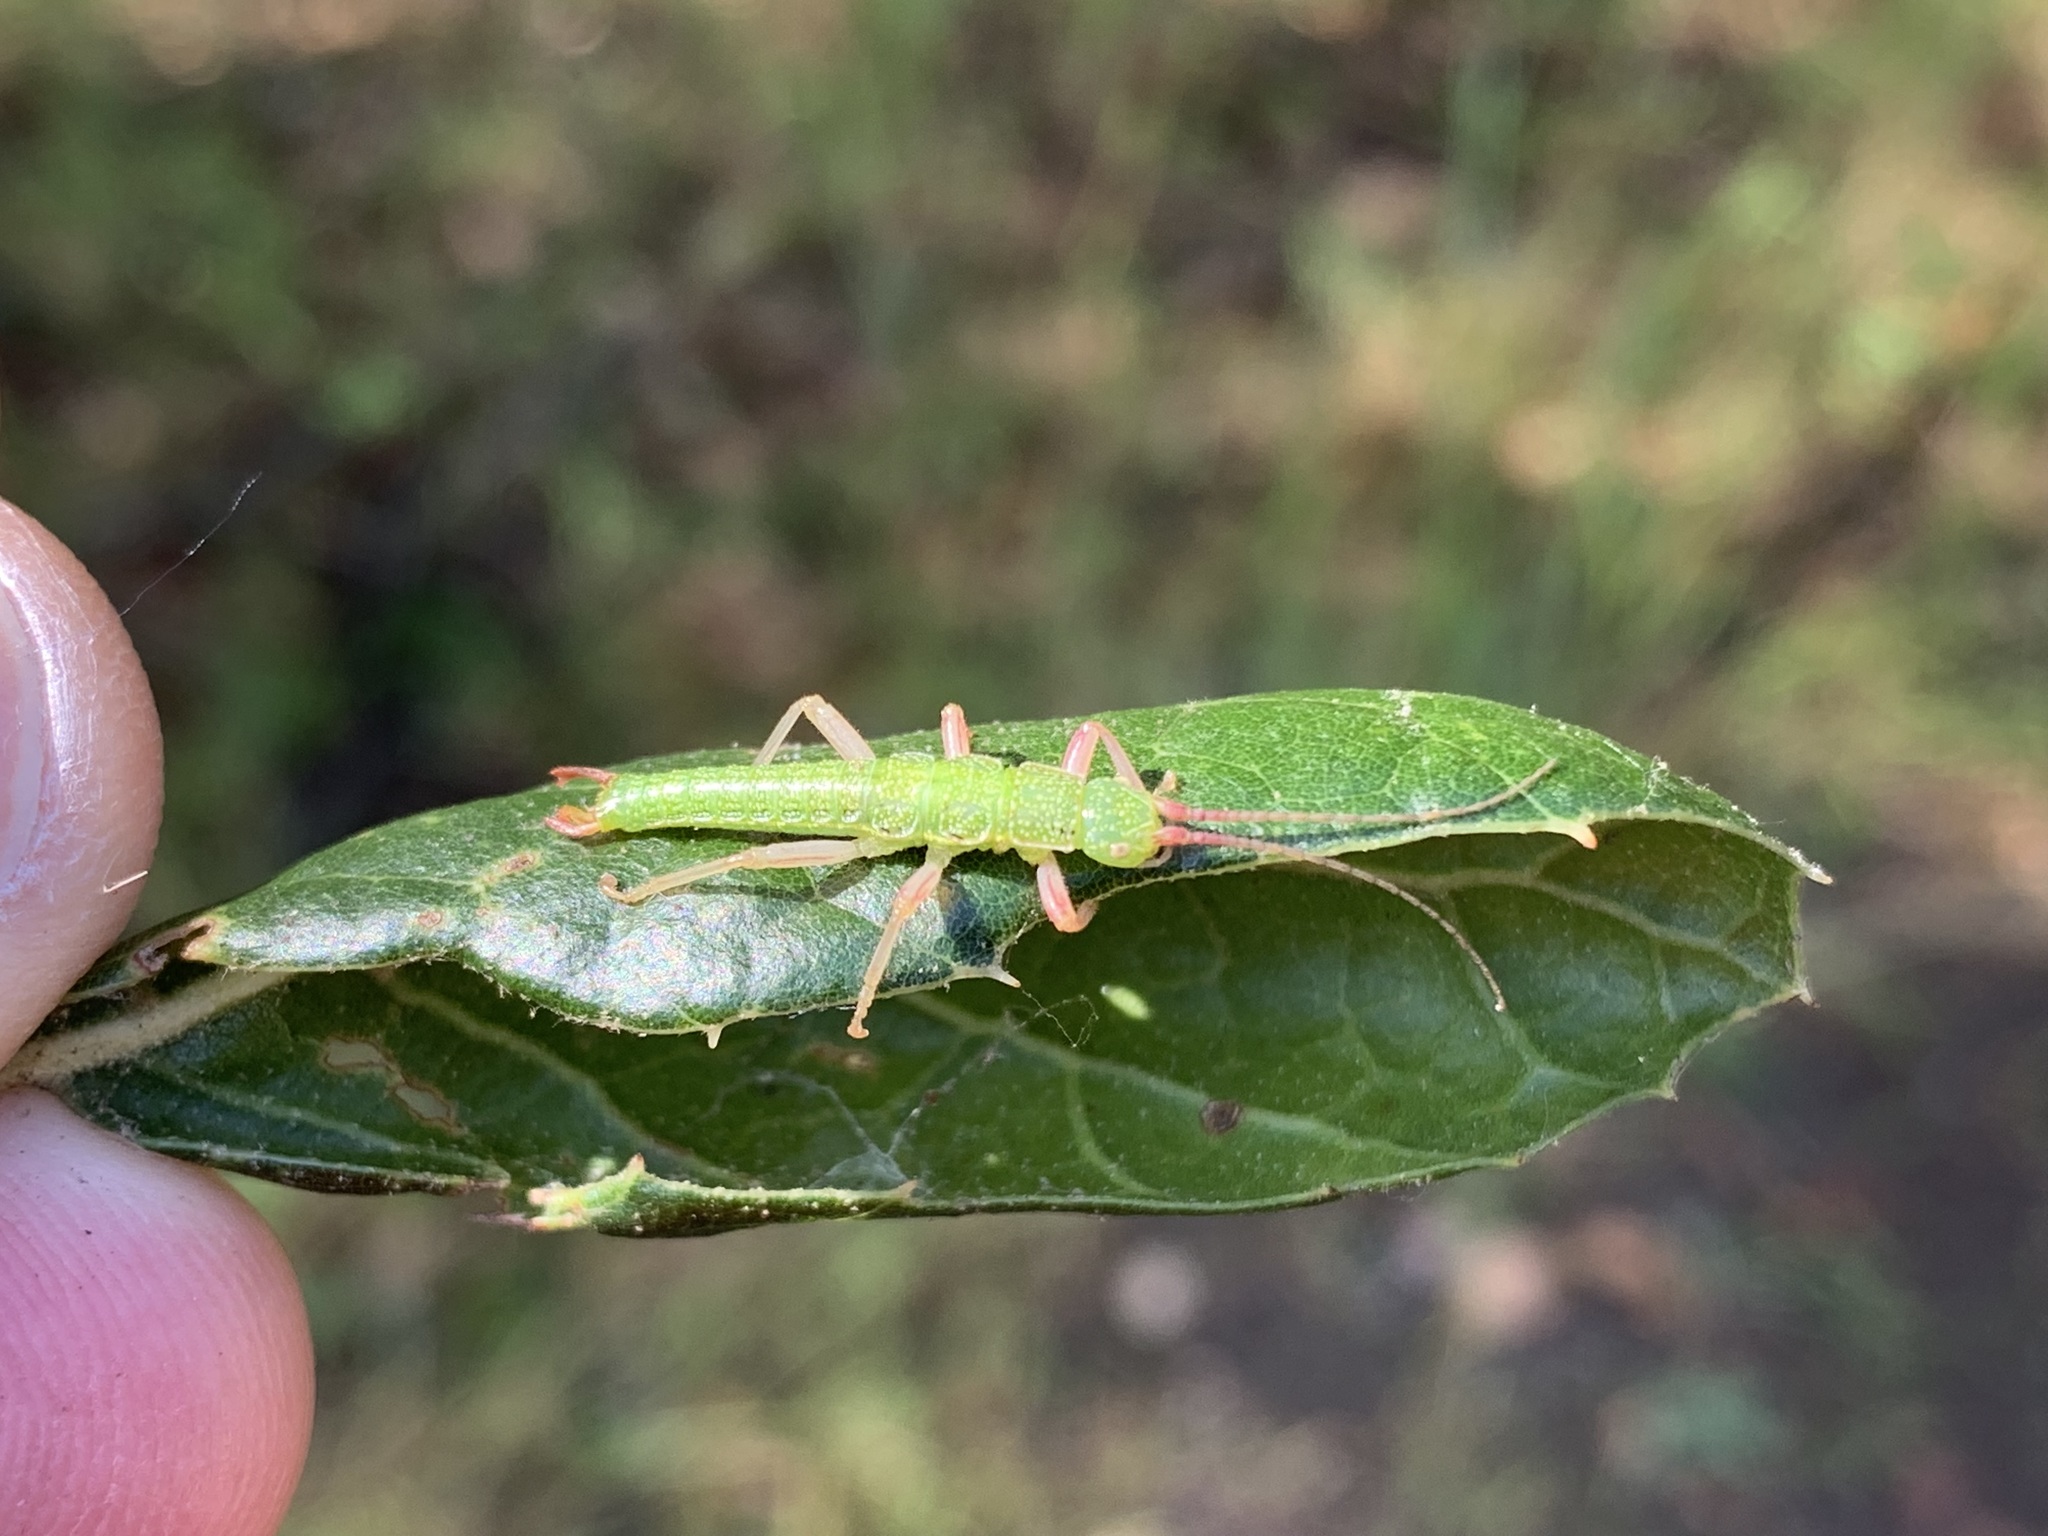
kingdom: Animalia
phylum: Arthropoda
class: Insecta
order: Phasmida
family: Timematidae
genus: Timema
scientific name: Timema californicum
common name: California timema
